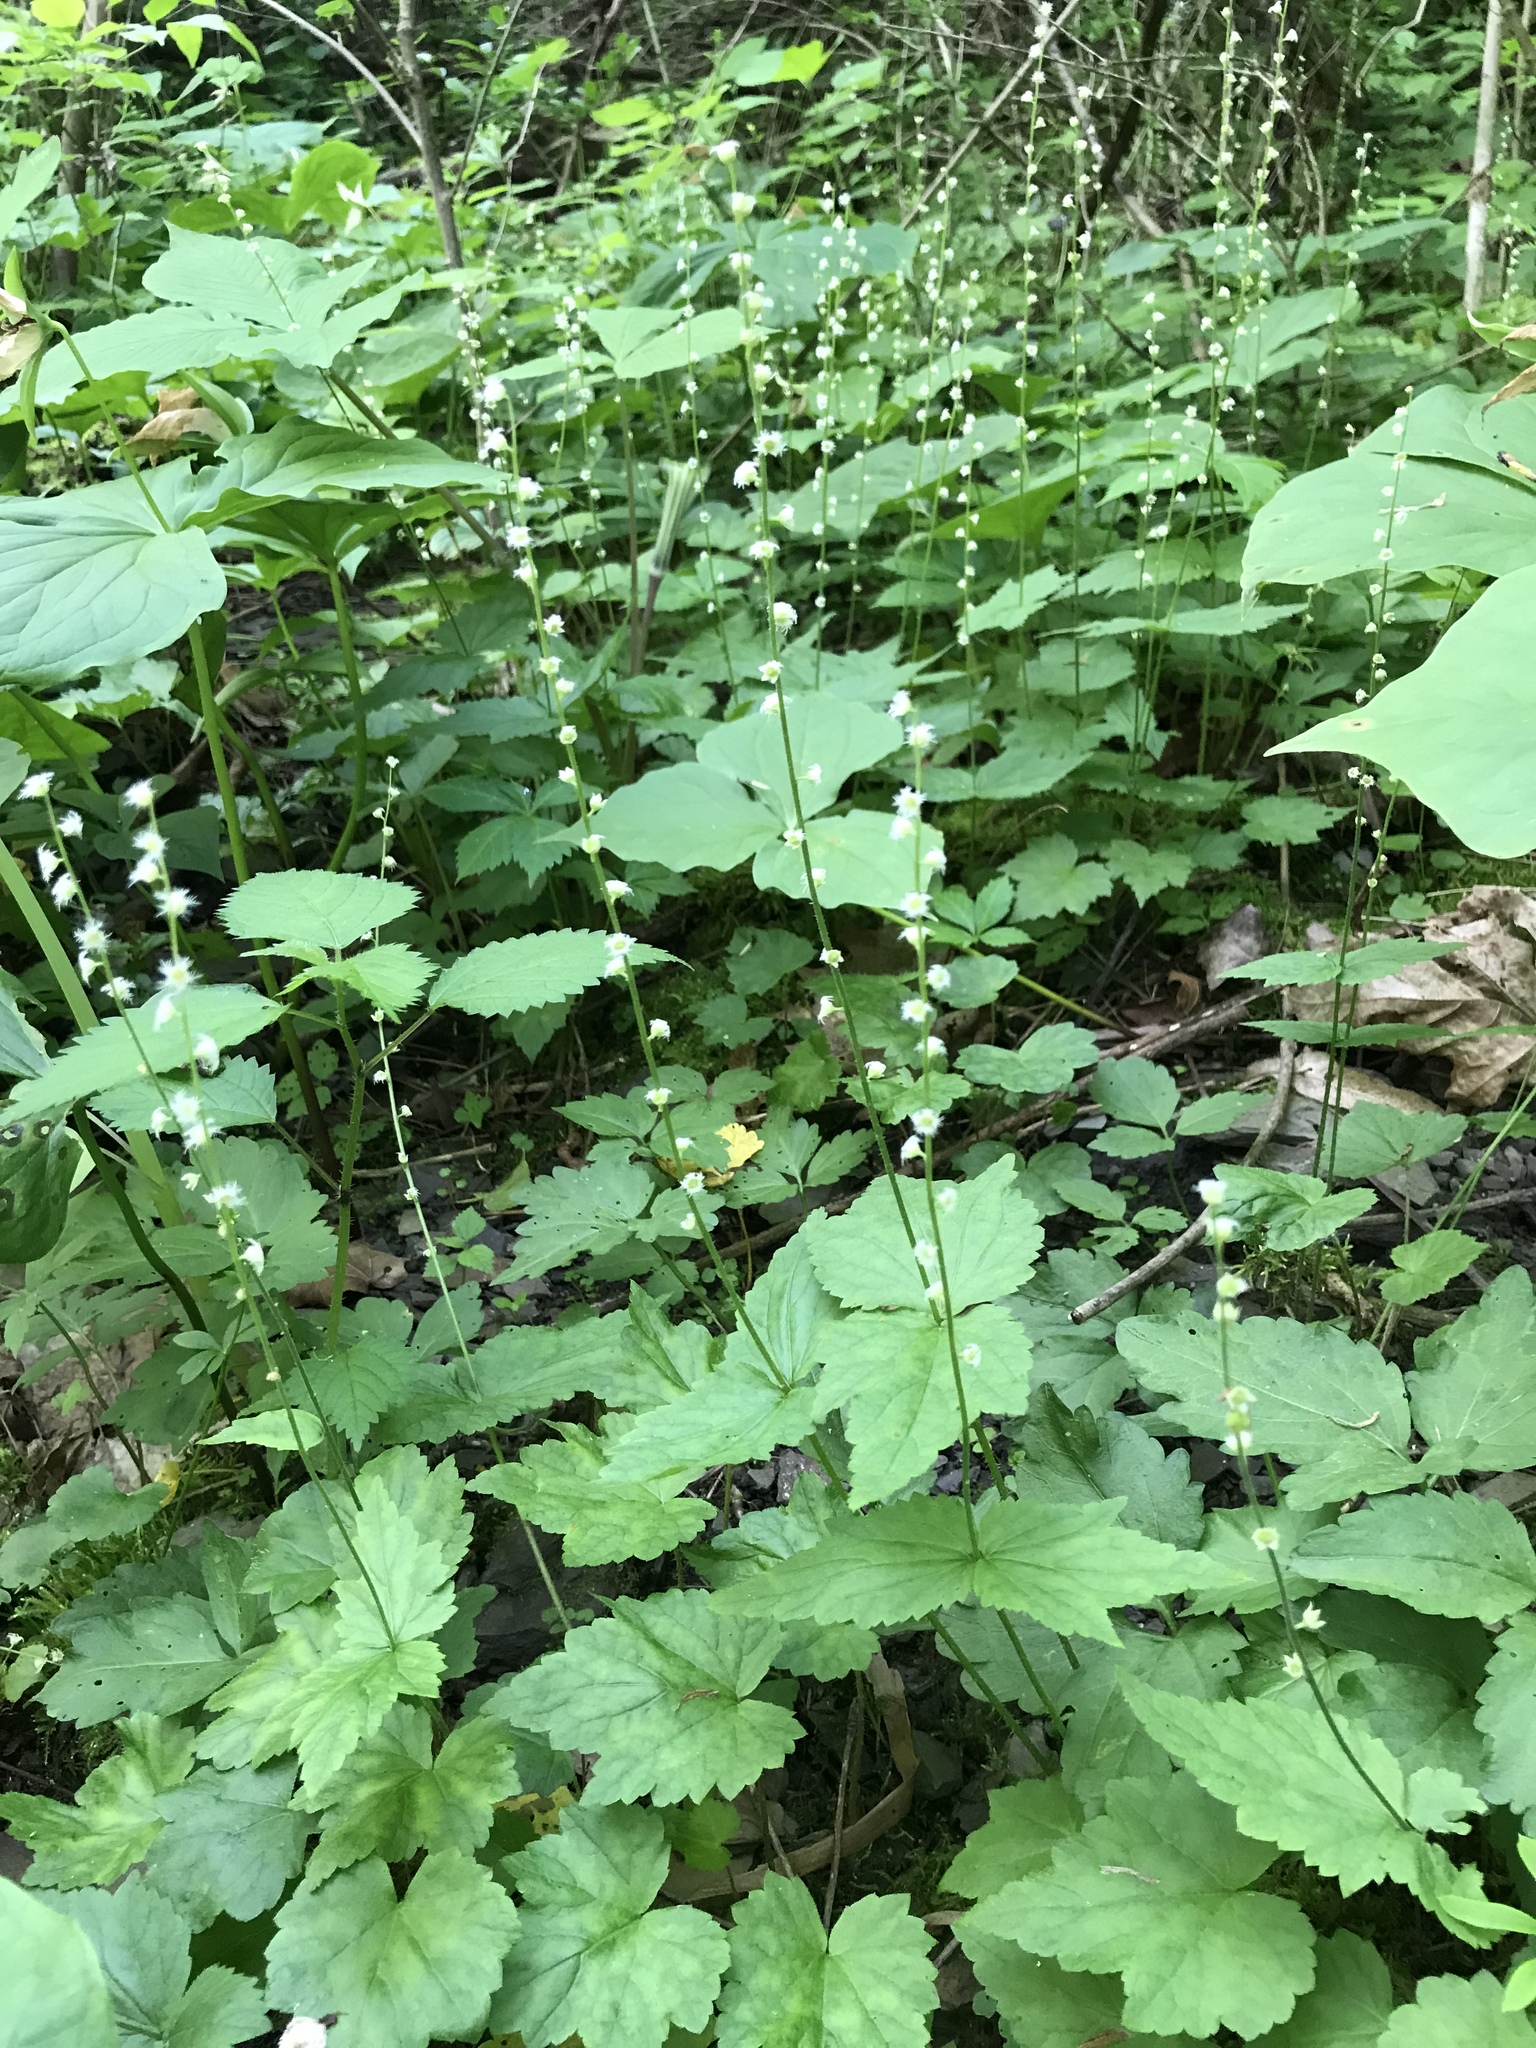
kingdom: Plantae
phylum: Tracheophyta
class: Magnoliopsida
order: Saxifragales
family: Saxifragaceae
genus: Mitella
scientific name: Mitella diphylla
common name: Coolwort
